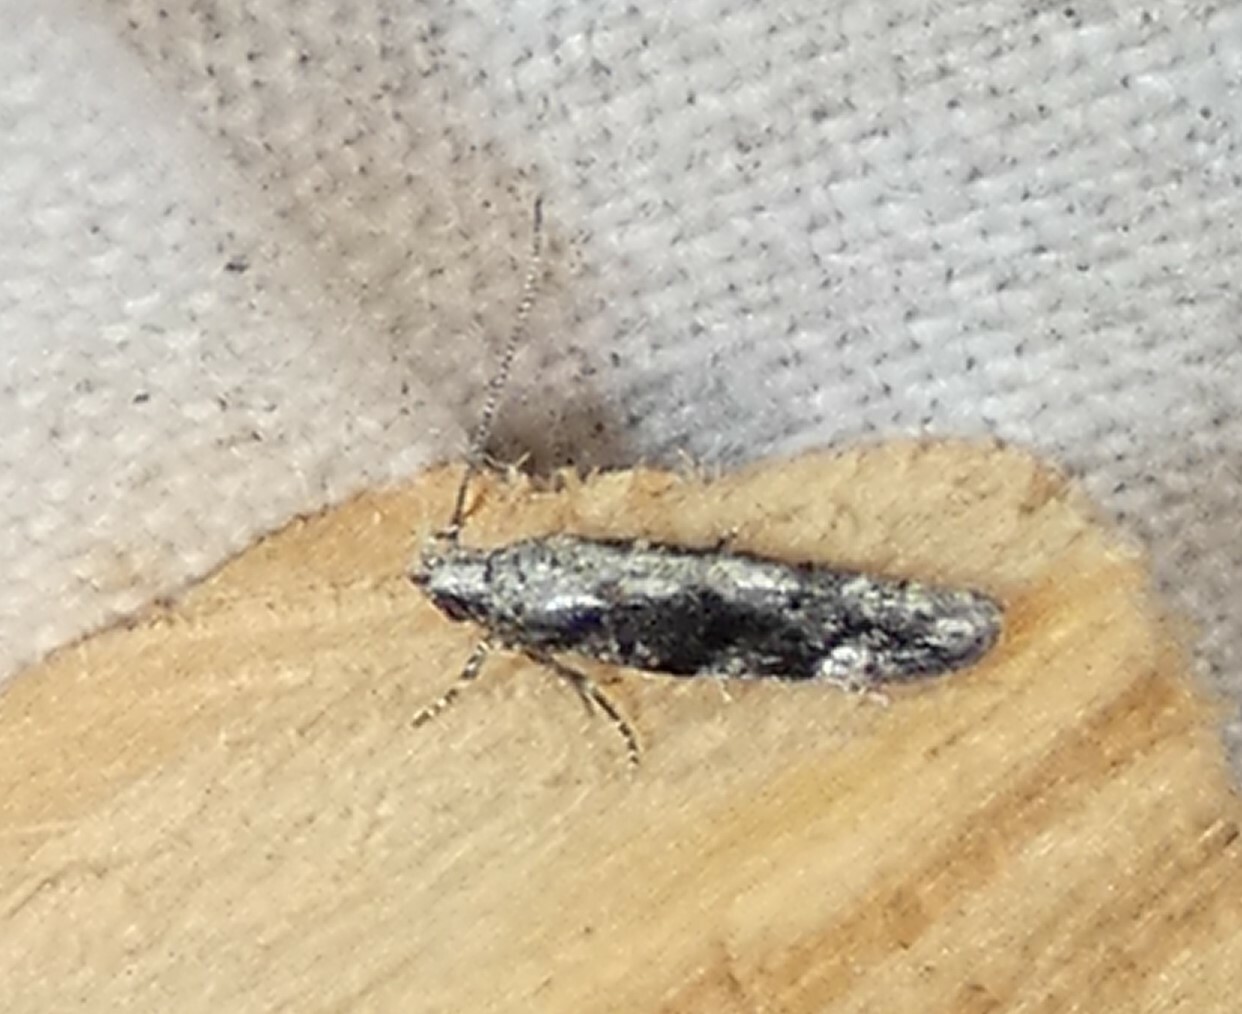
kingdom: Animalia
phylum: Arthropoda
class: Insecta
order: Lepidoptera
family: Gelechiidae
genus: Coleotechnites
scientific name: Coleotechnites florae
